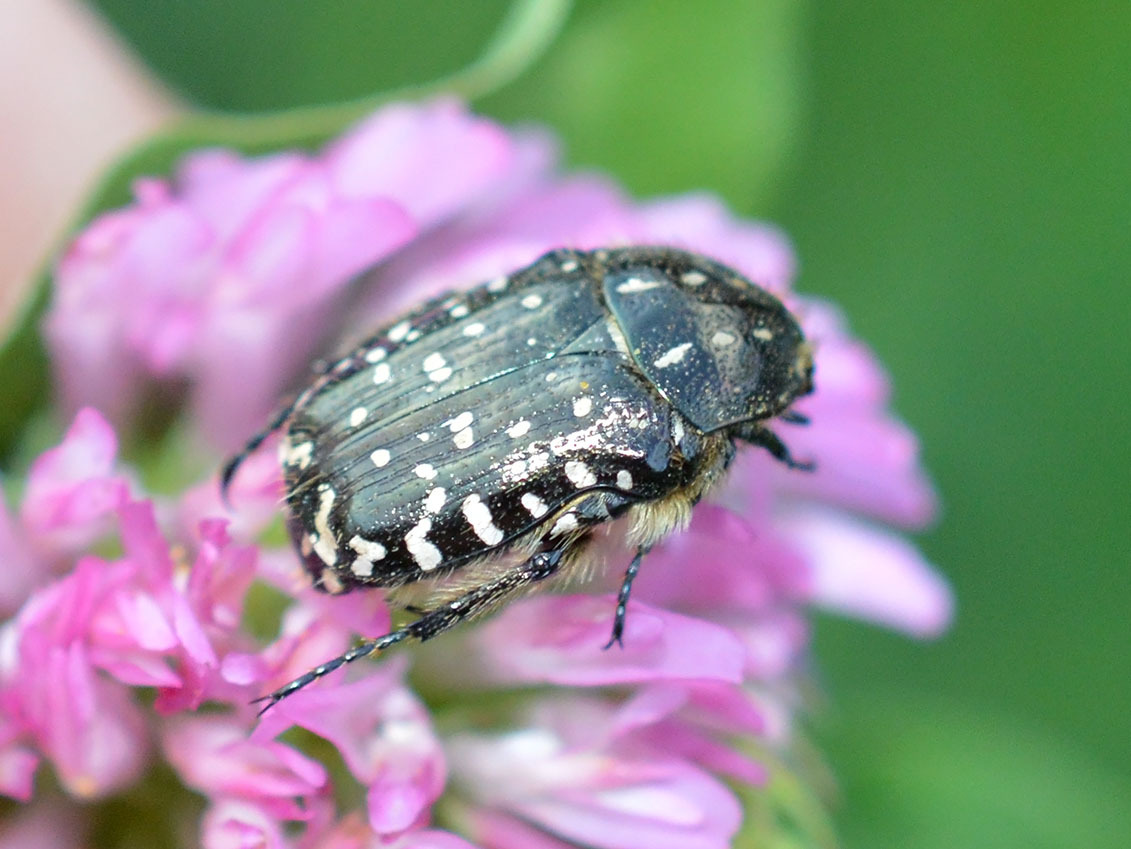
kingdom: Animalia
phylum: Arthropoda
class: Insecta
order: Coleoptera
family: Scarabaeidae
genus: Oxythyrea
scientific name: Oxythyrea funesta
